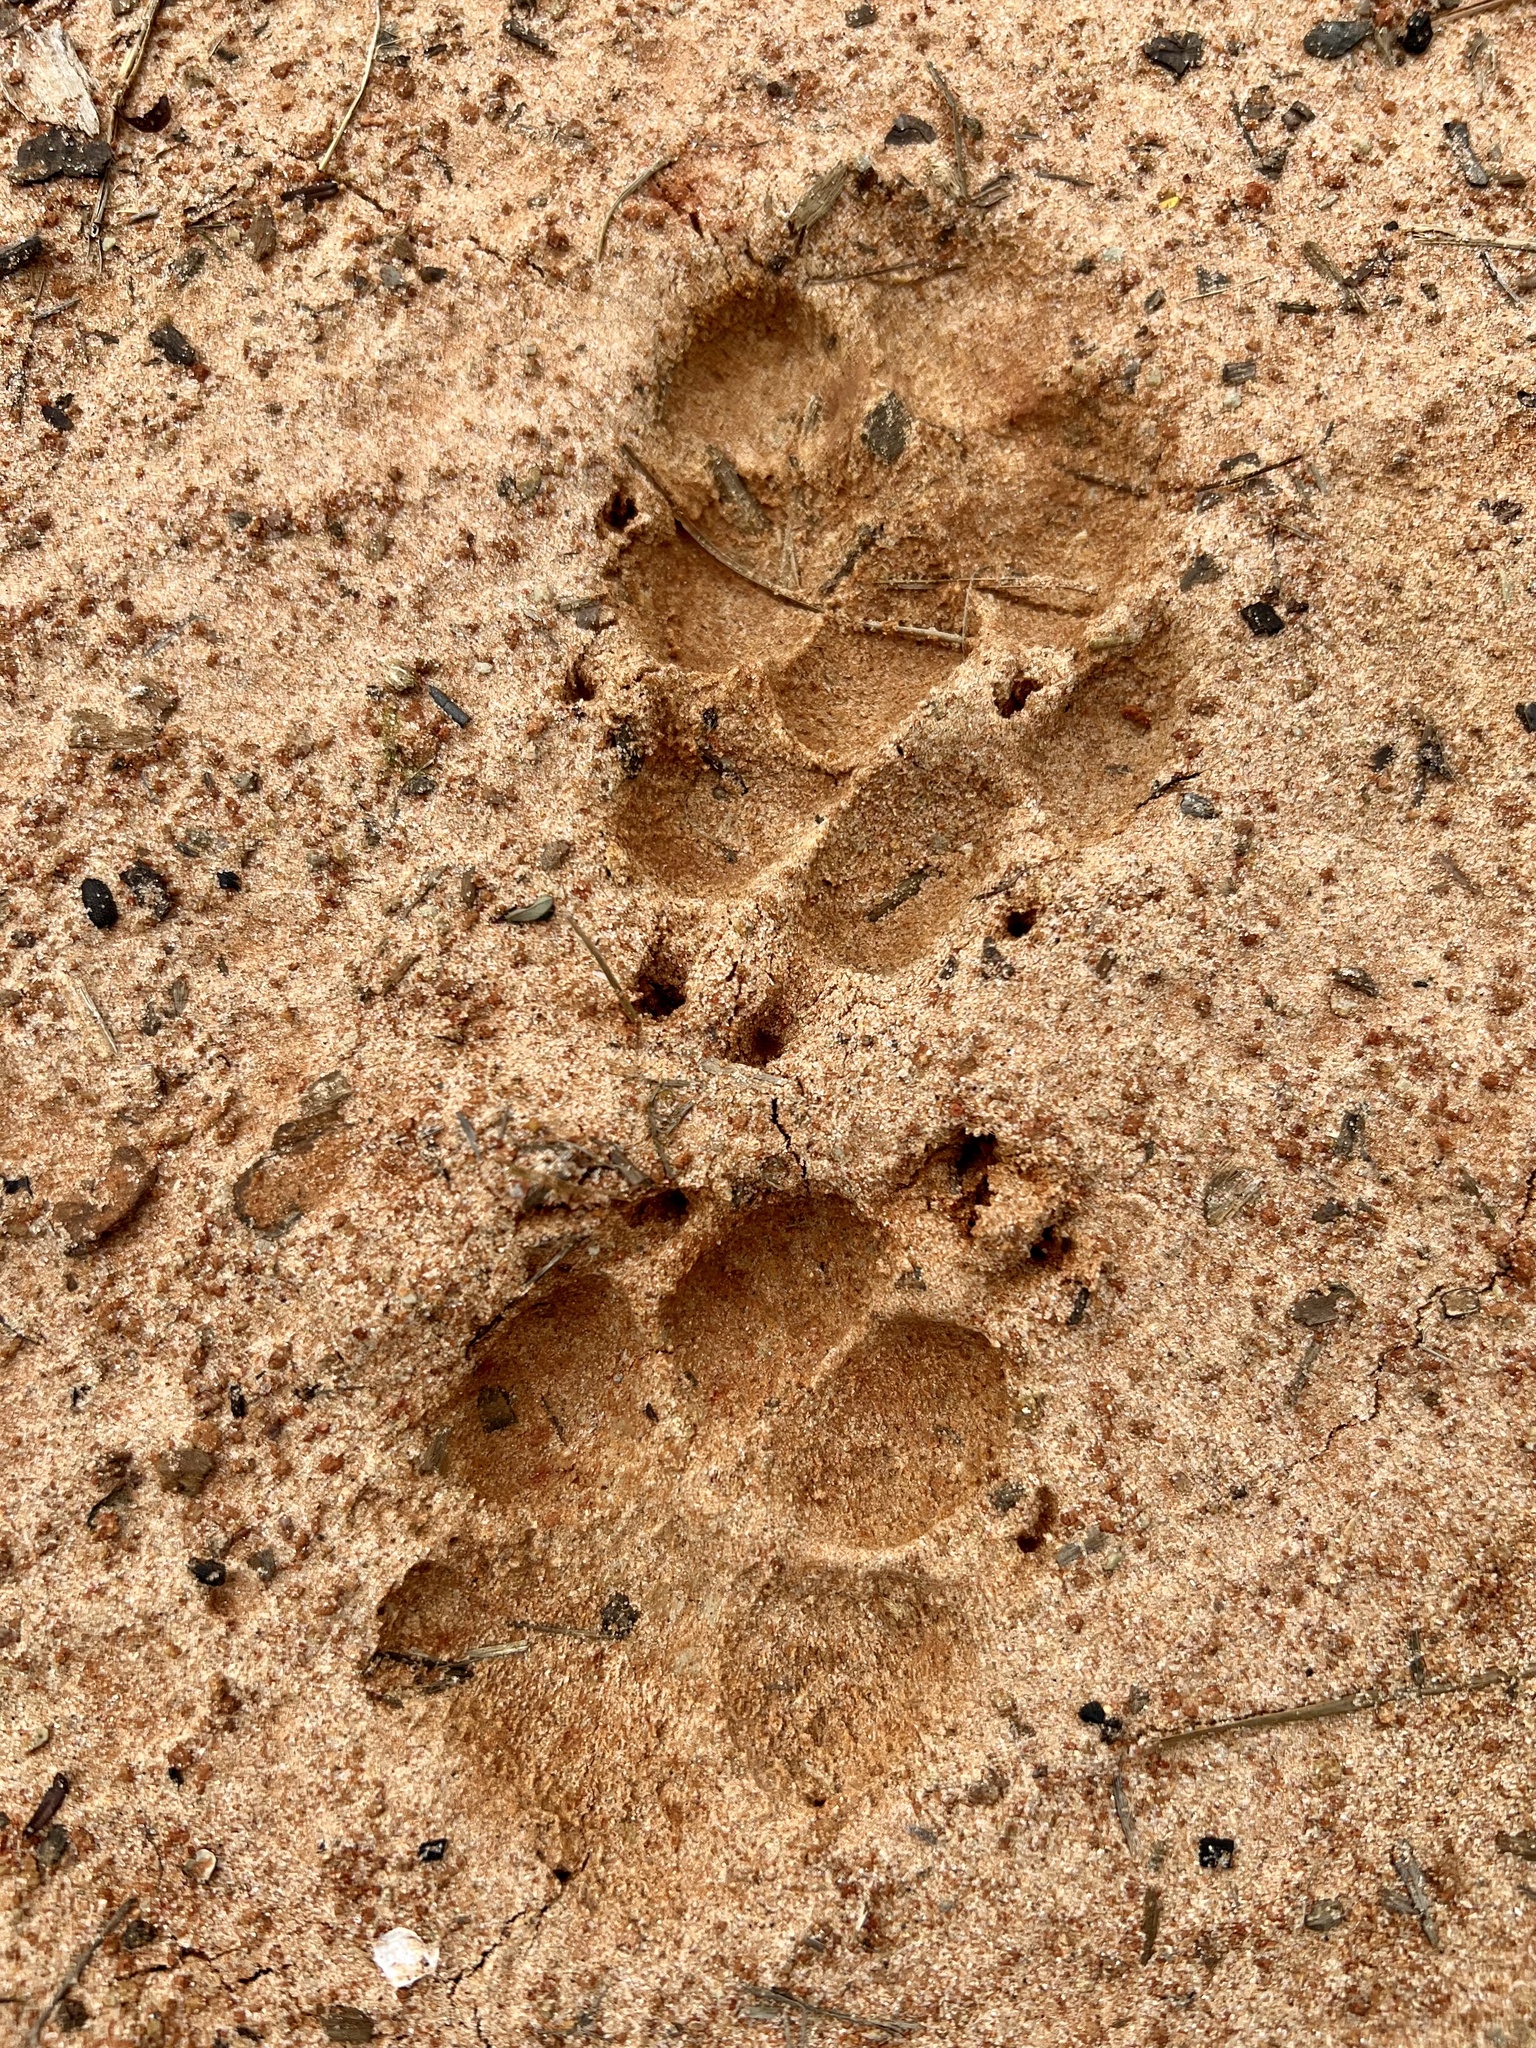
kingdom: Animalia
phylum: Chordata
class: Mammalia
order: Carnivora
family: Canidae
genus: Canis
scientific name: Canis lupus
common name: Gray wolf
